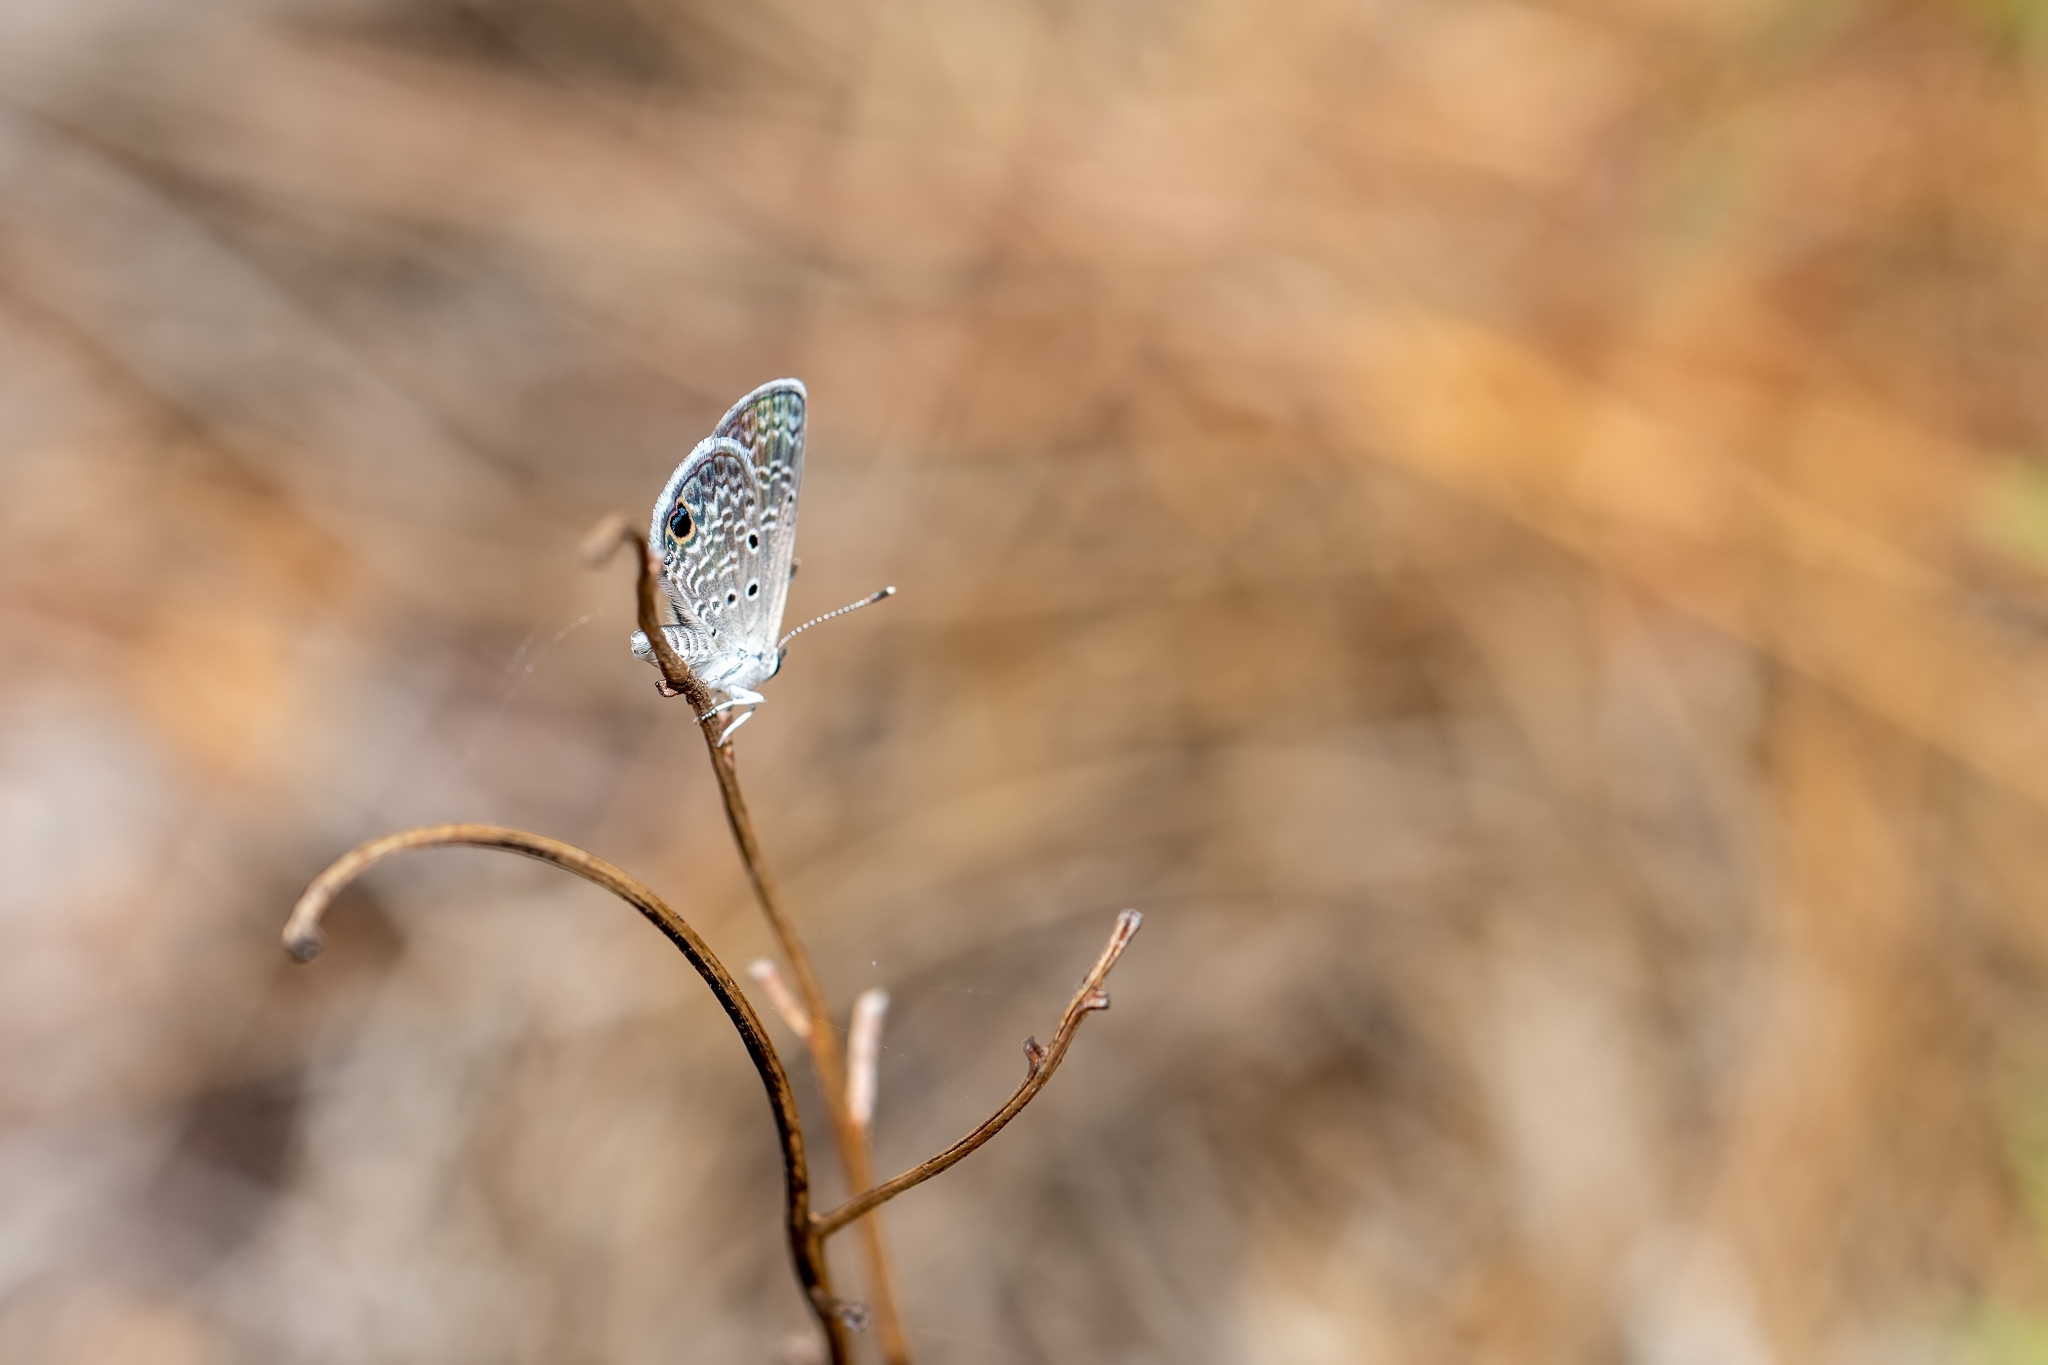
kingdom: Animalia
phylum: Arthropoda
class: Insecta
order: Lepidoptera
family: Lycaenidae
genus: Hemiargus
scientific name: Hemiargus ceraunus
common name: Ceraunus blue
